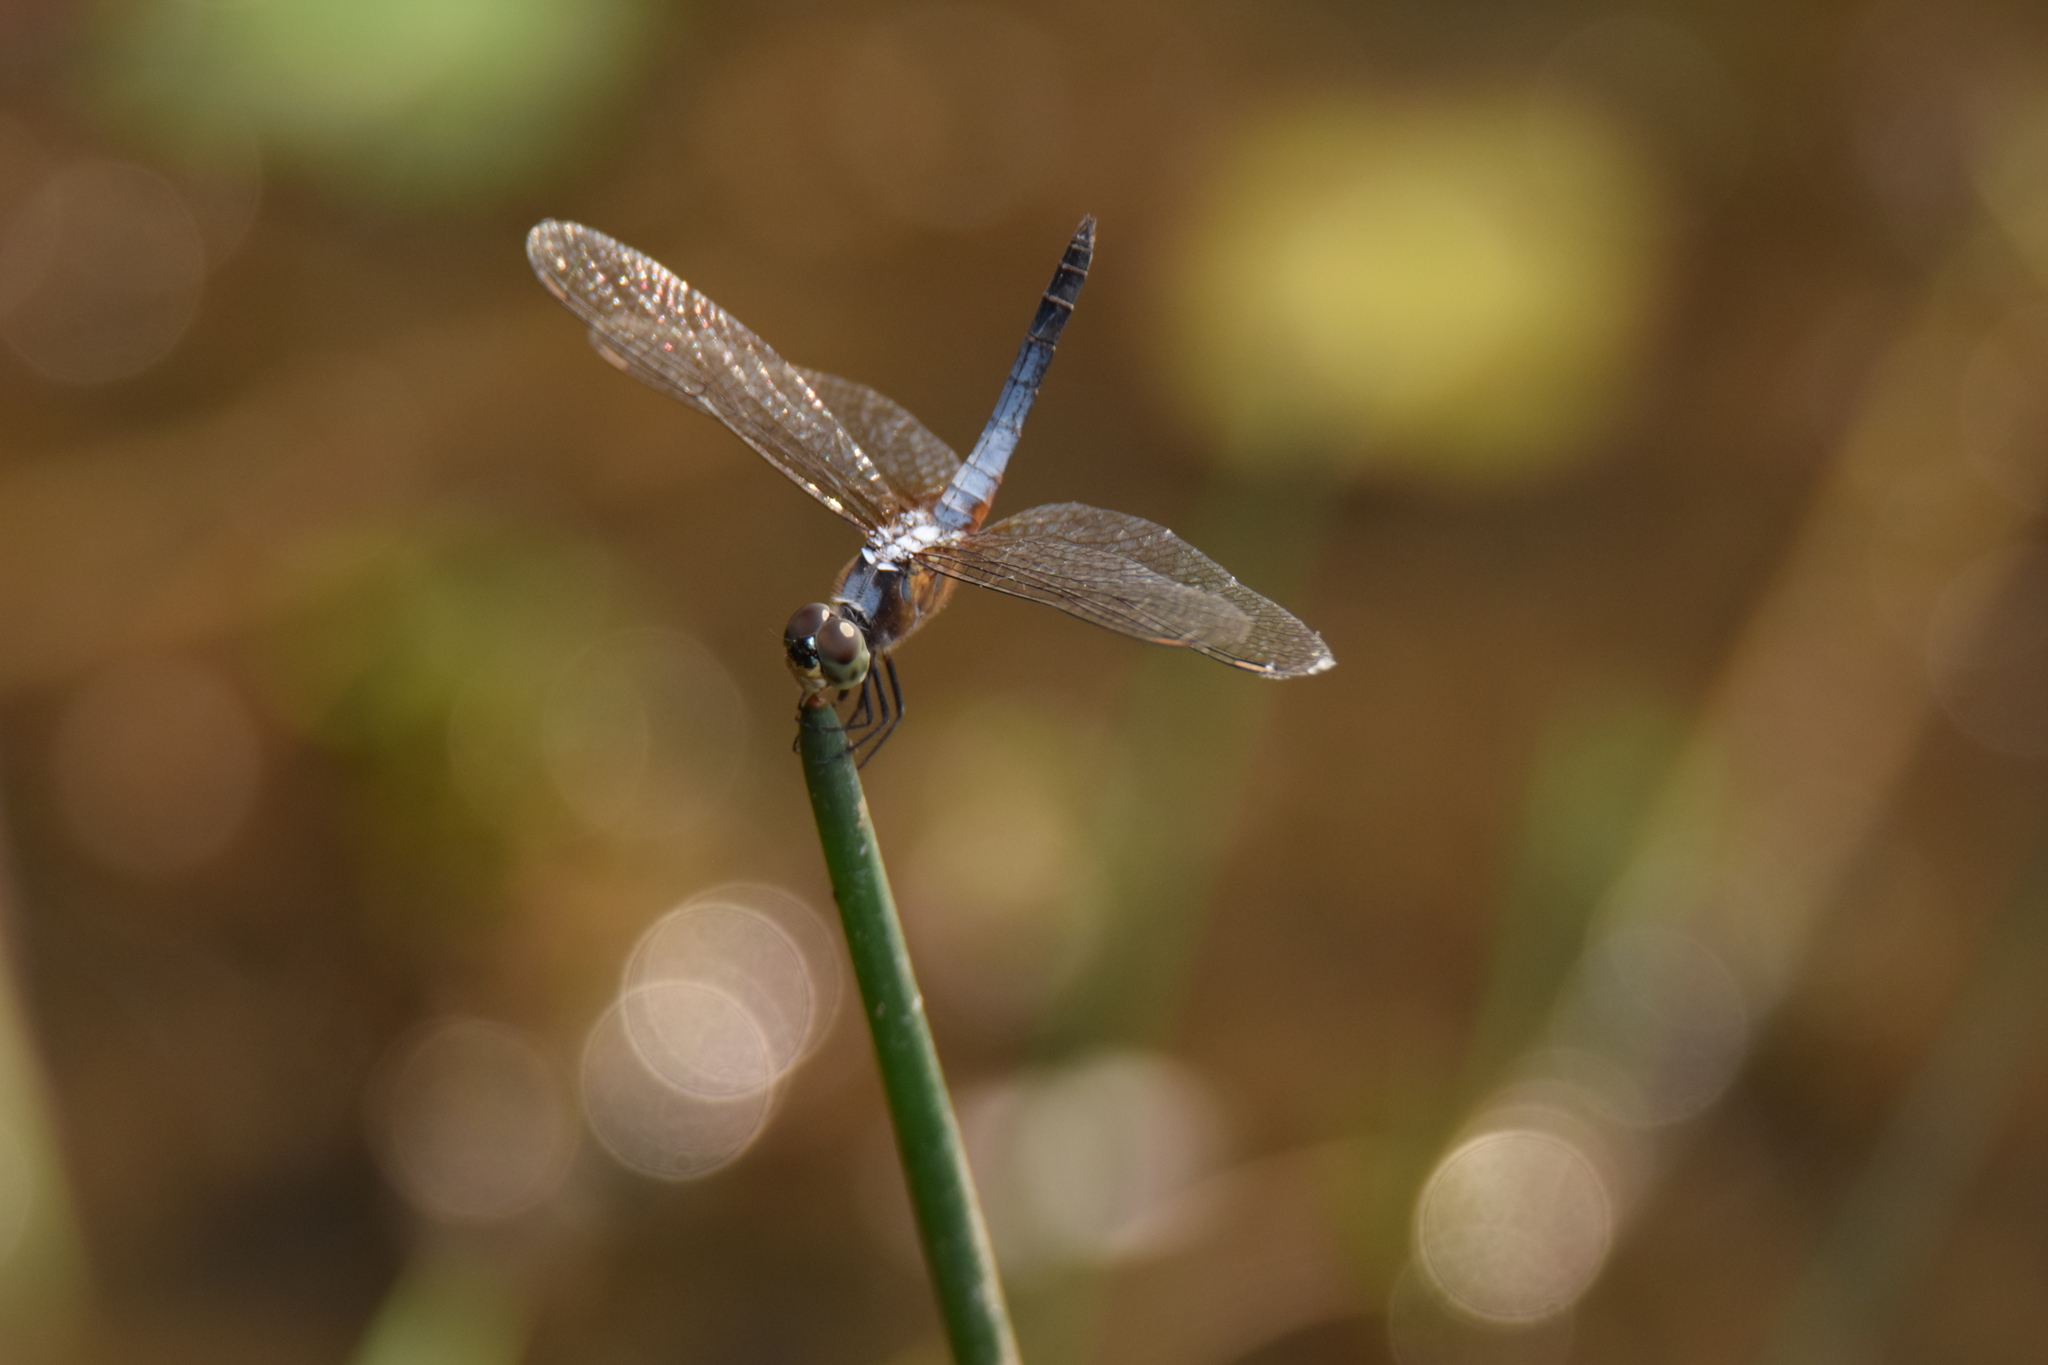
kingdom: Animalia
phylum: Arthropoda
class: Insecta
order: Odonata
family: Libellulidae
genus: Brachydiplax
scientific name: Brachydiplax chalybea
